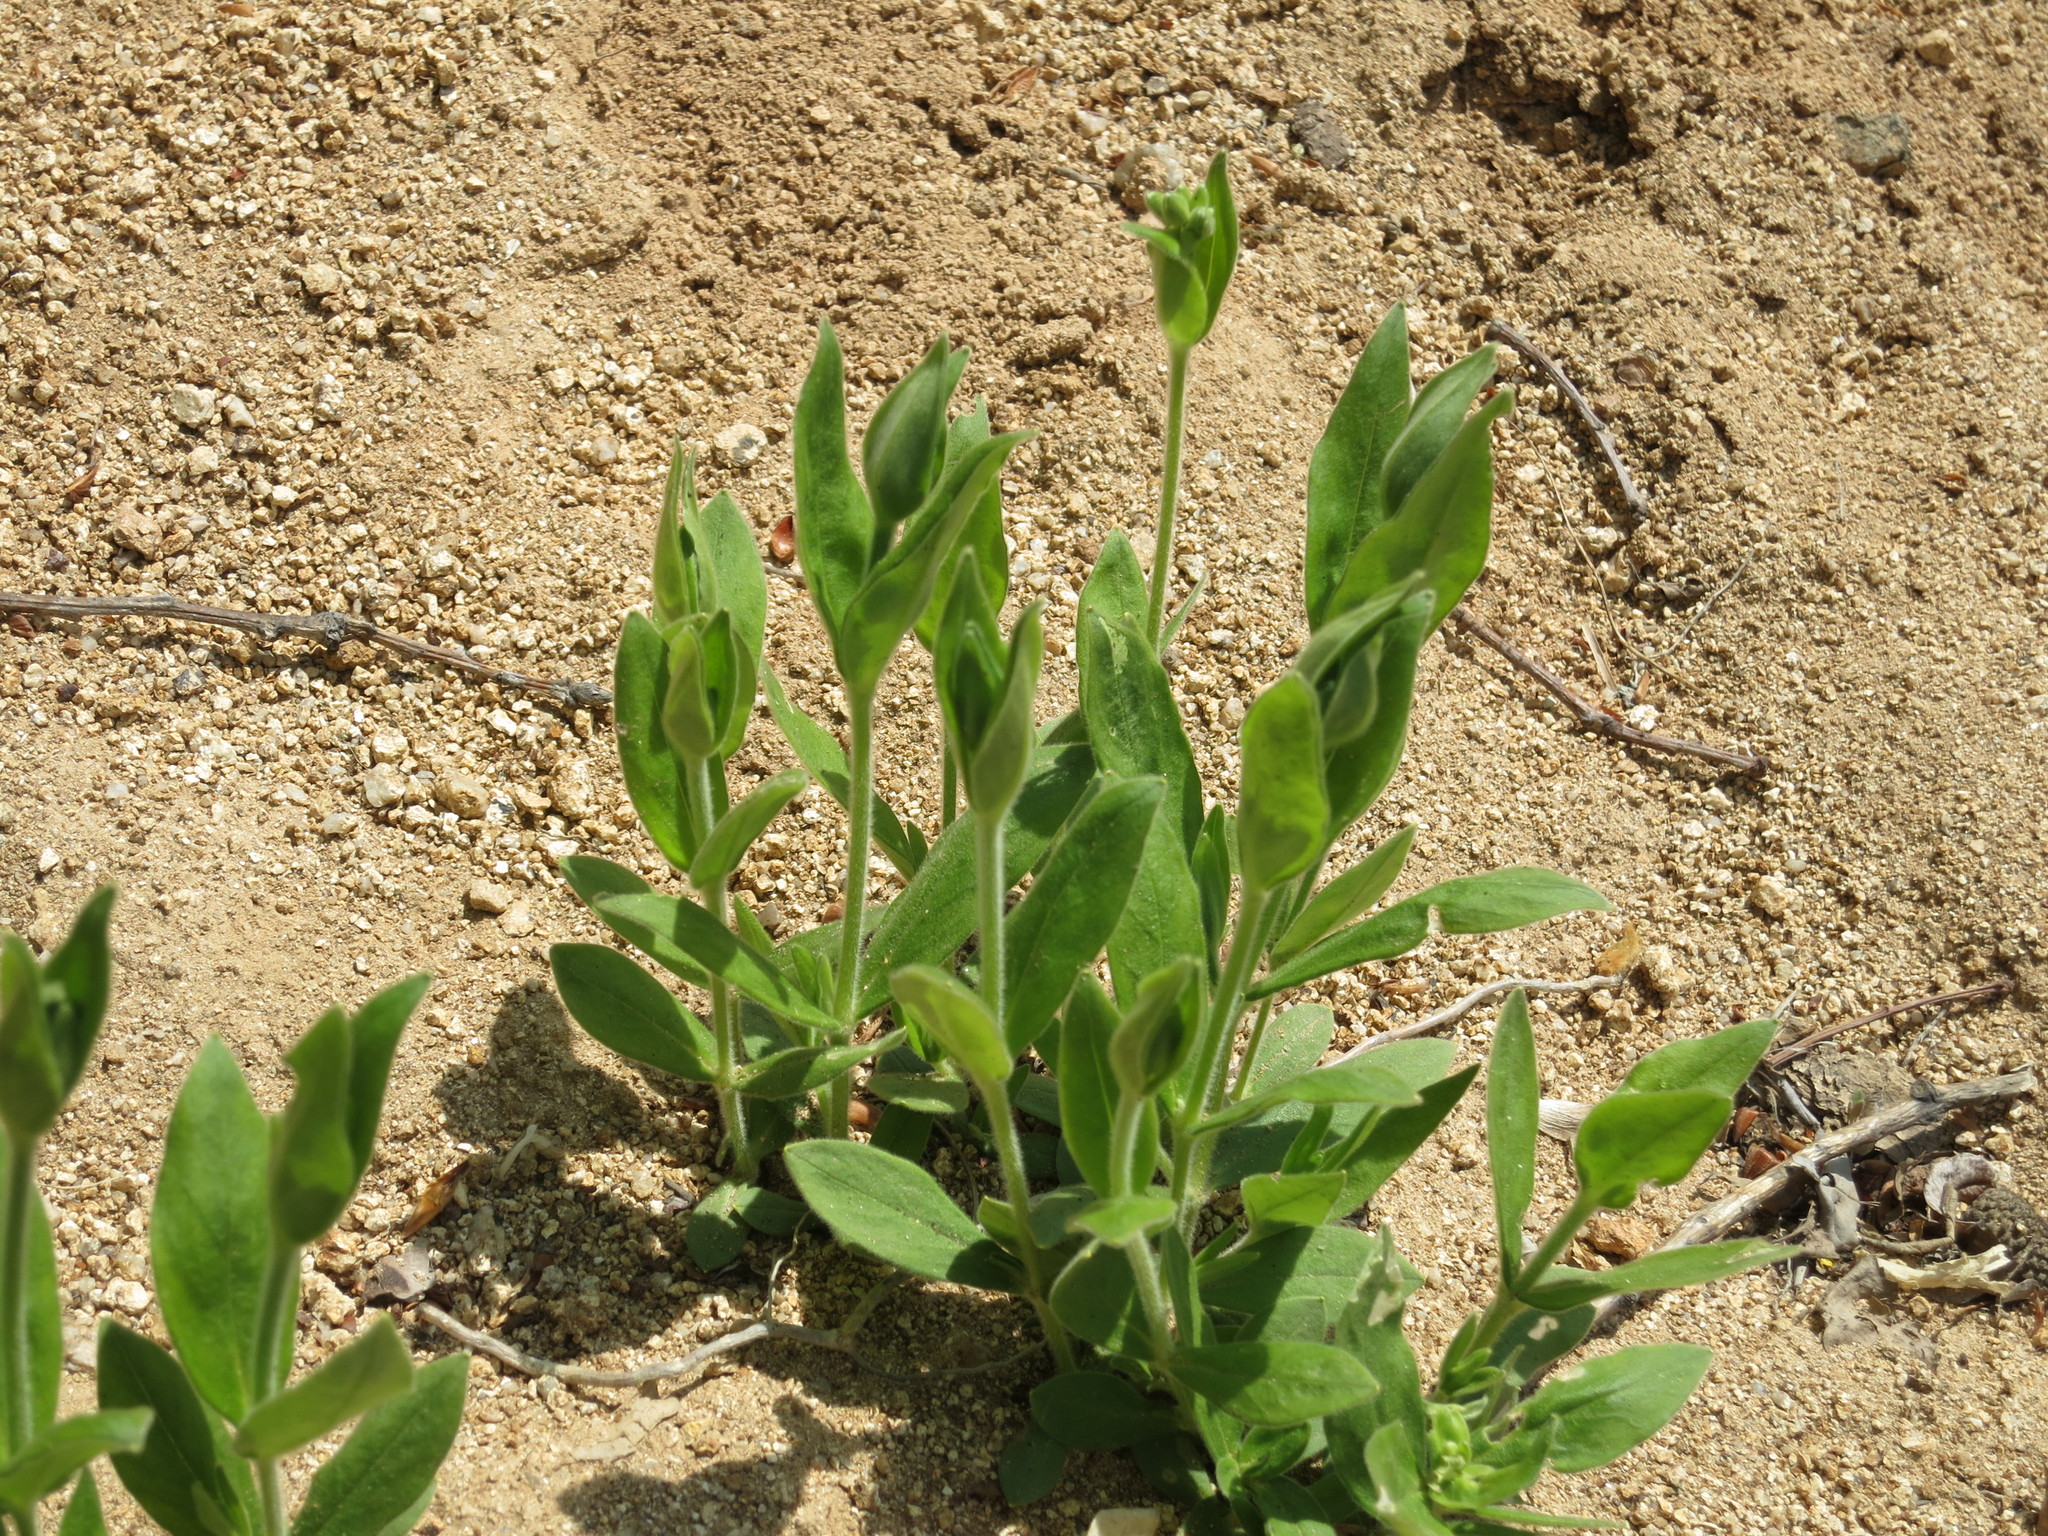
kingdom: Plantae
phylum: Tracheophyta
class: Magnoliopsida
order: Caryophyllales
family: Caryophyllaceae
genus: Cerastium
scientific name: Cerastium pauciflorum
